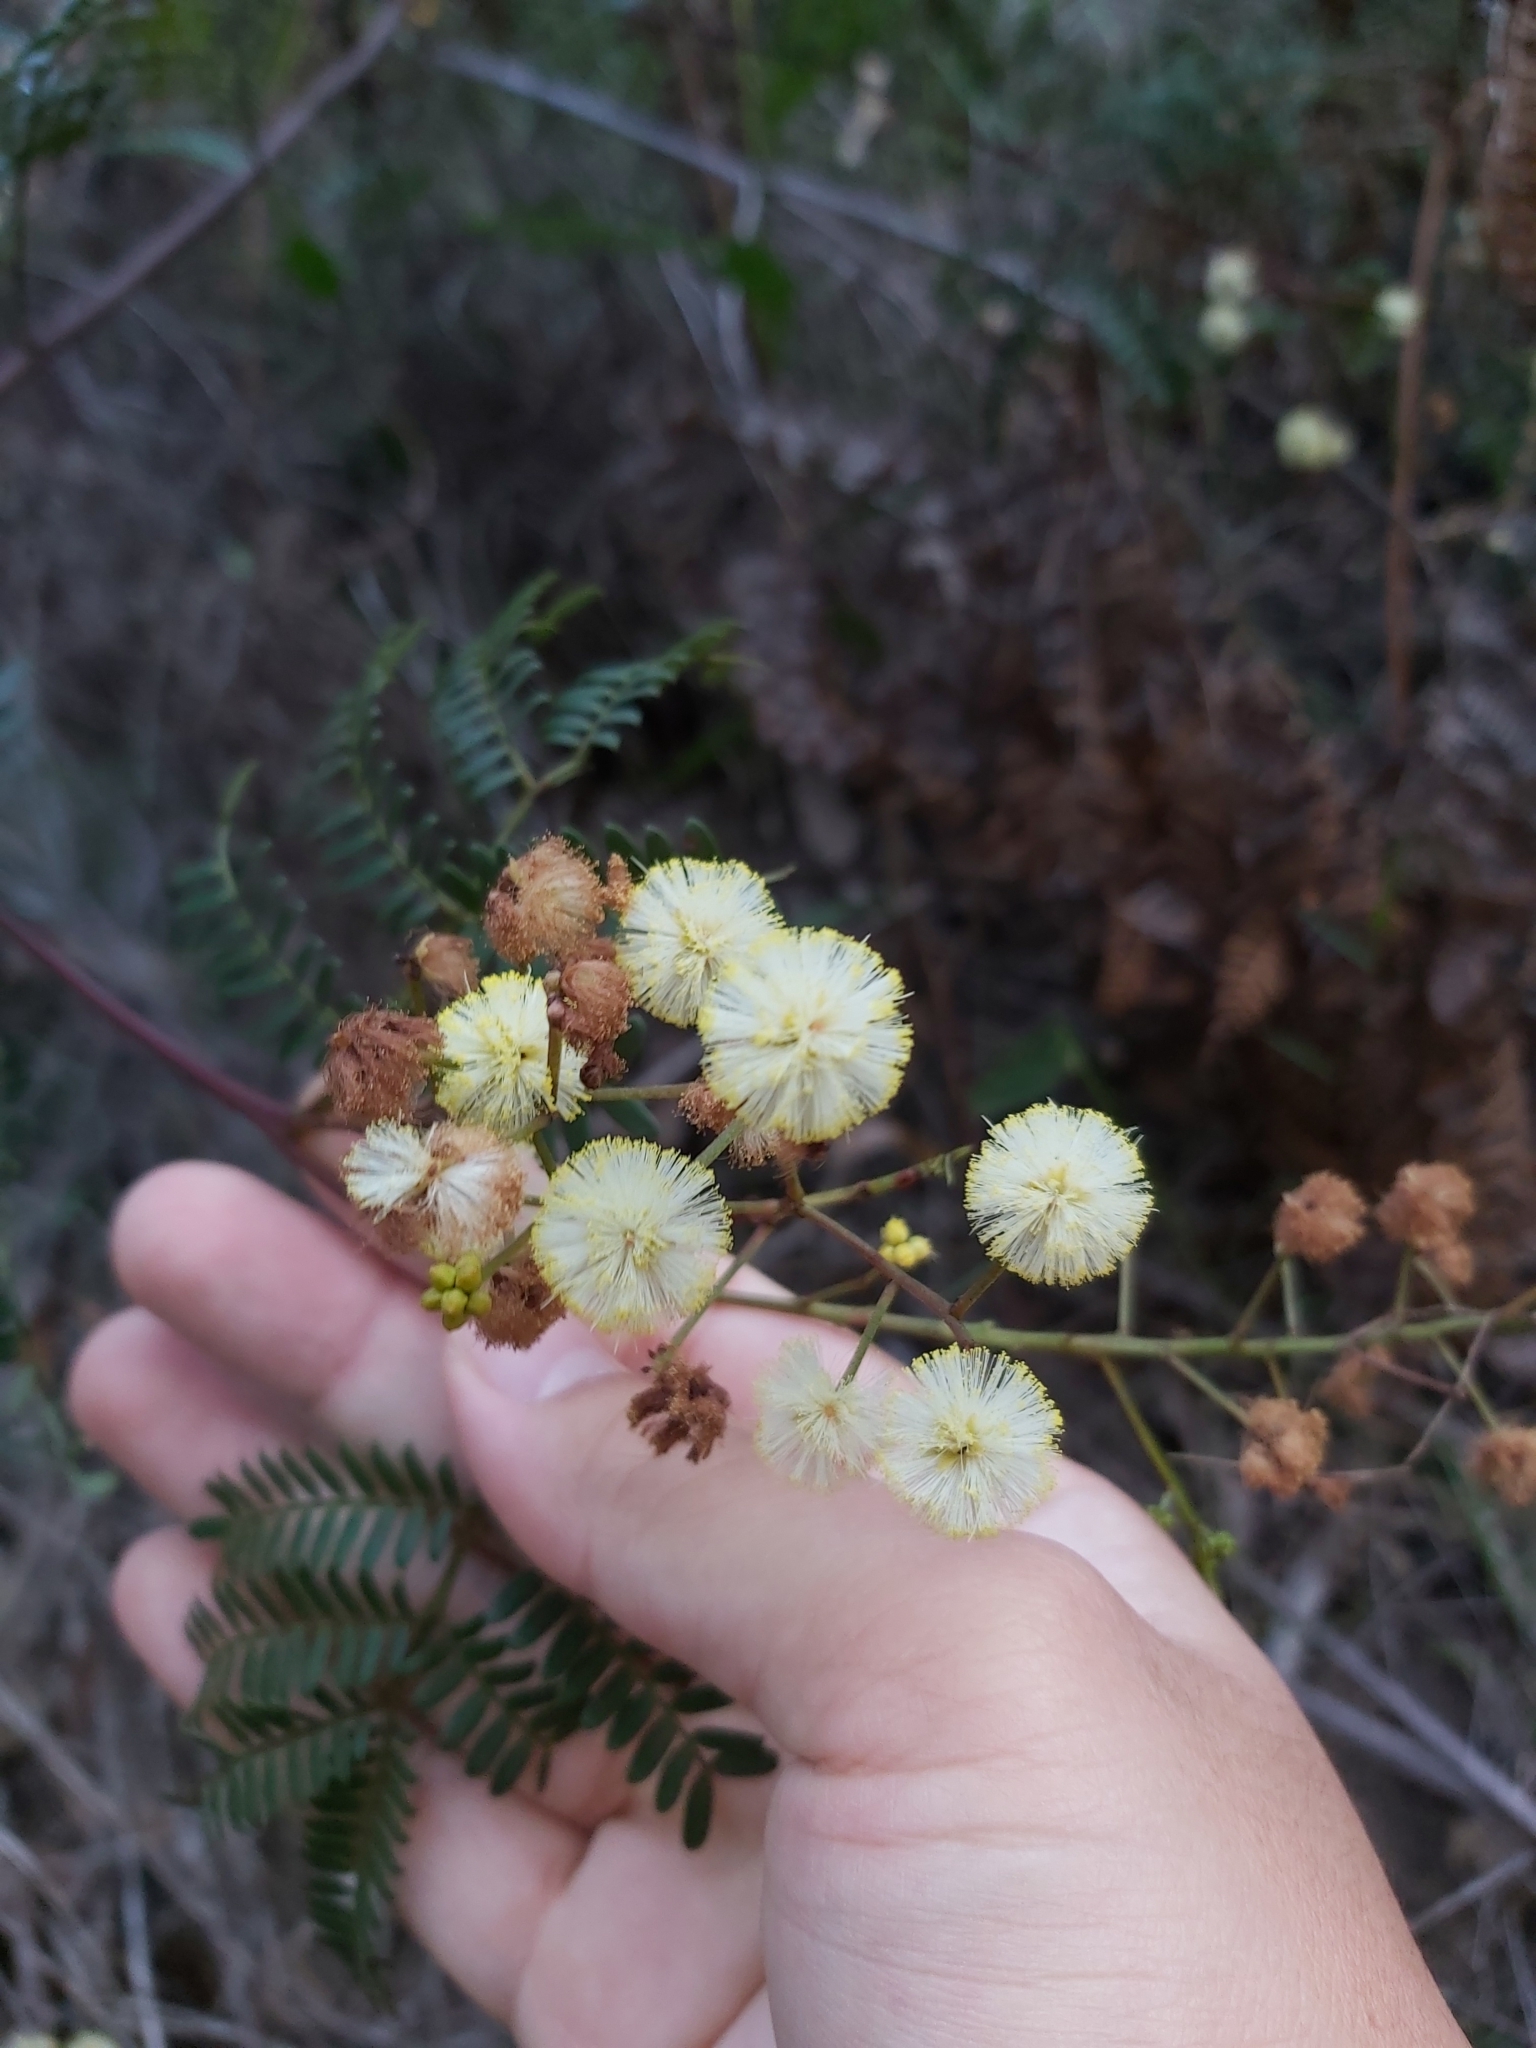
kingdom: Plantae
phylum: Tracheophyta
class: Magnoliopsida
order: Fabales
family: Fabaceae
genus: Acacia
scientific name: Acacia terminalis
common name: Cedar wattle
